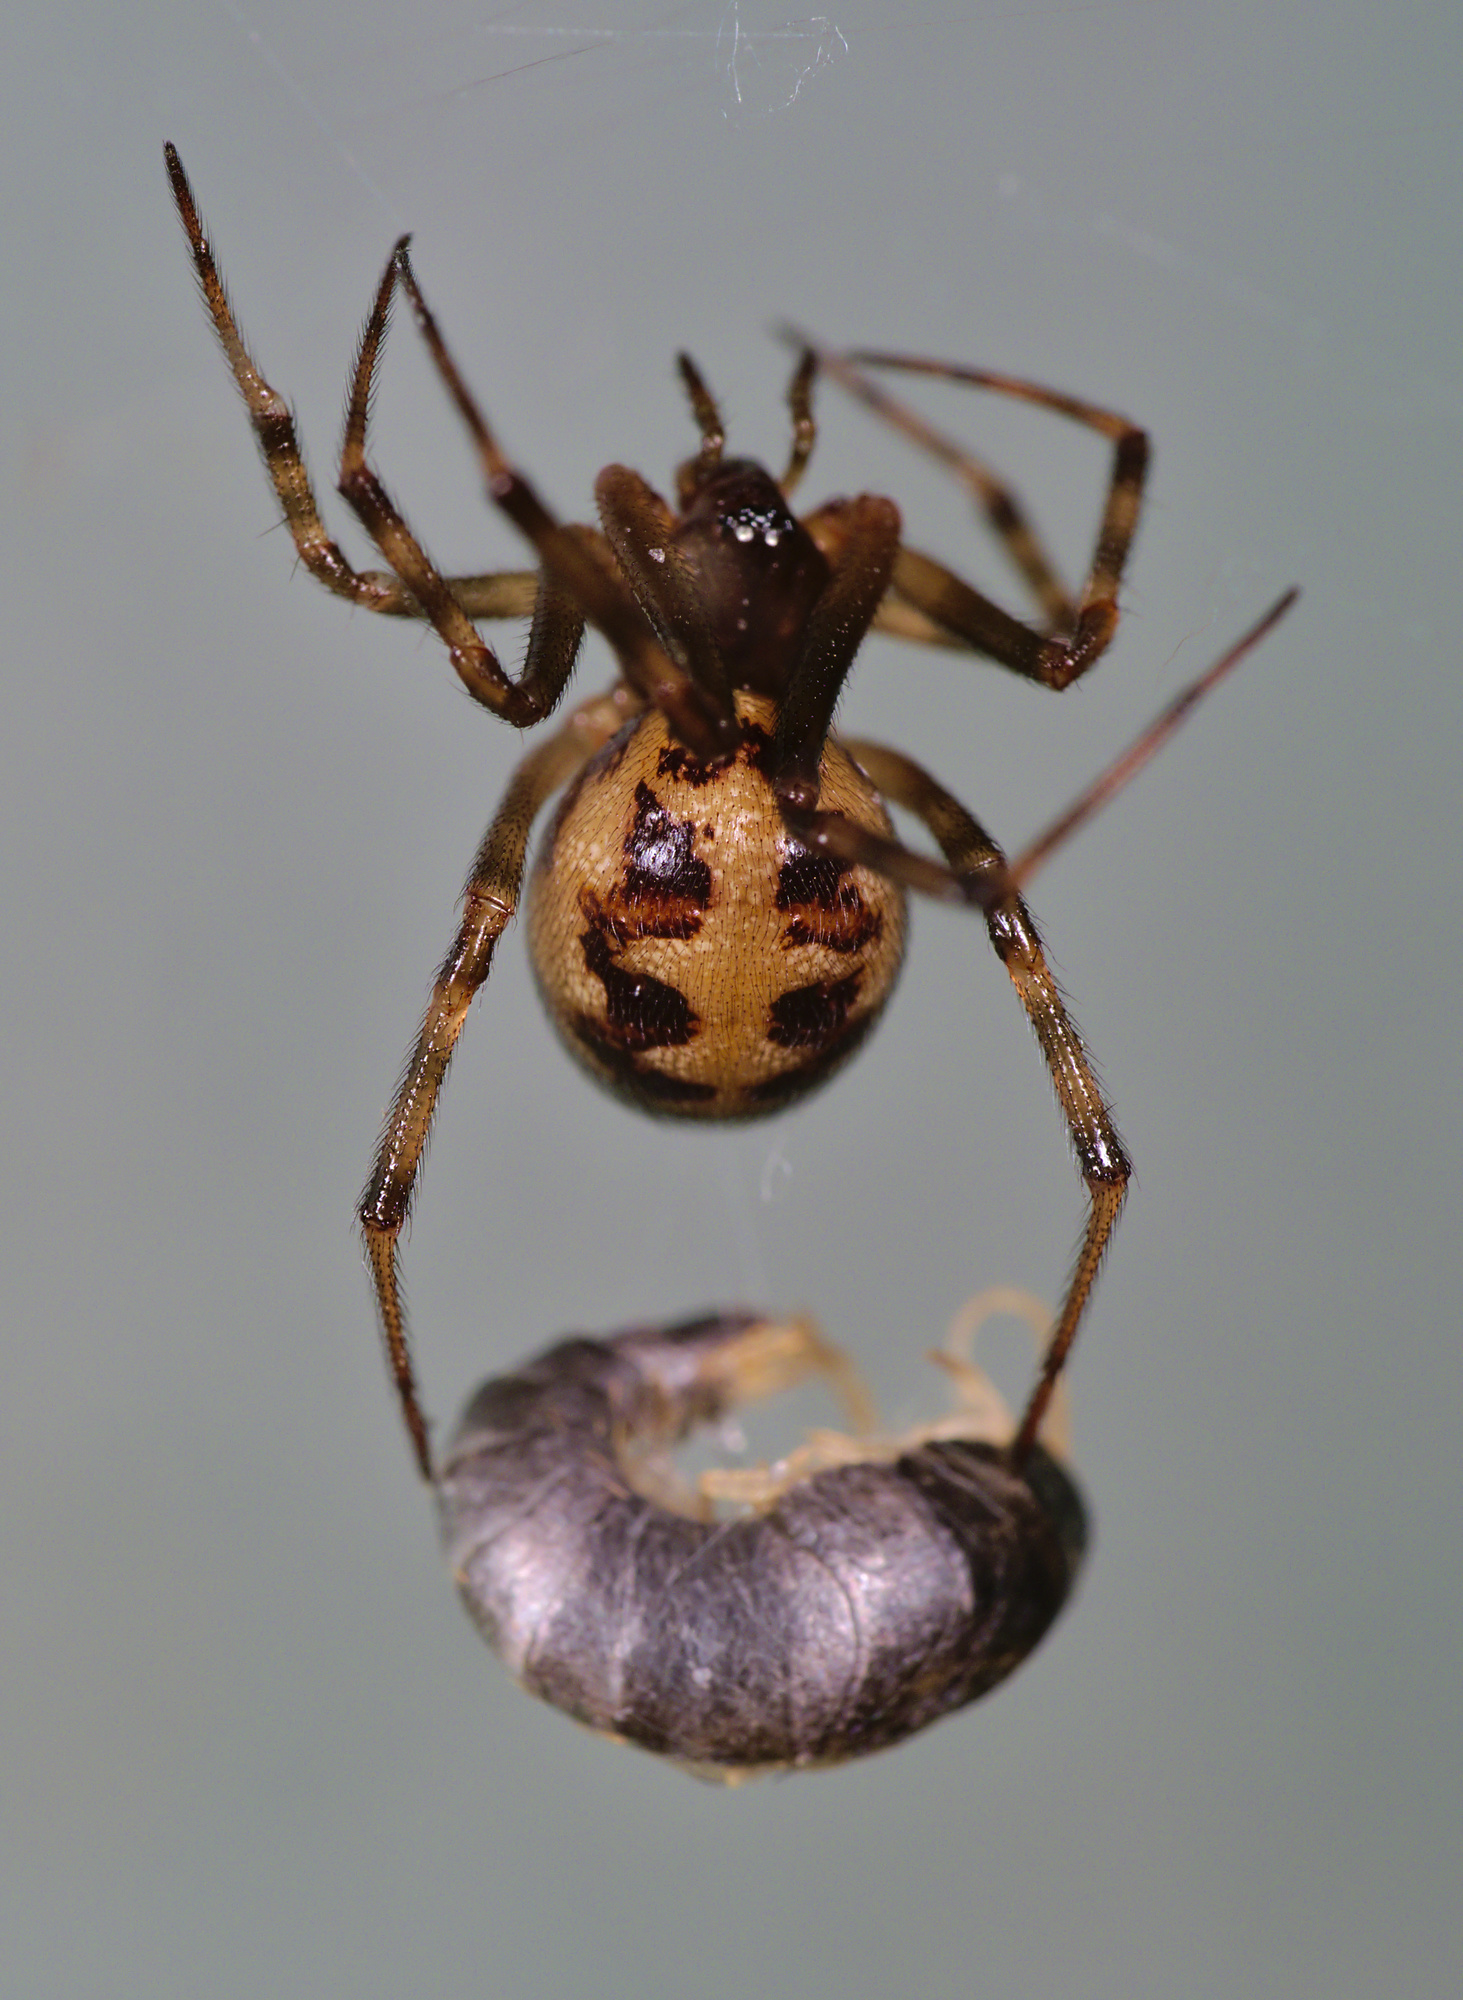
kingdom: Animalia
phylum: Arthropoda
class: Arachnida
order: Araneae
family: Theridiidae
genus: Steatoda
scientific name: Steatoda triangulosa
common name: Triangulate bud spider
